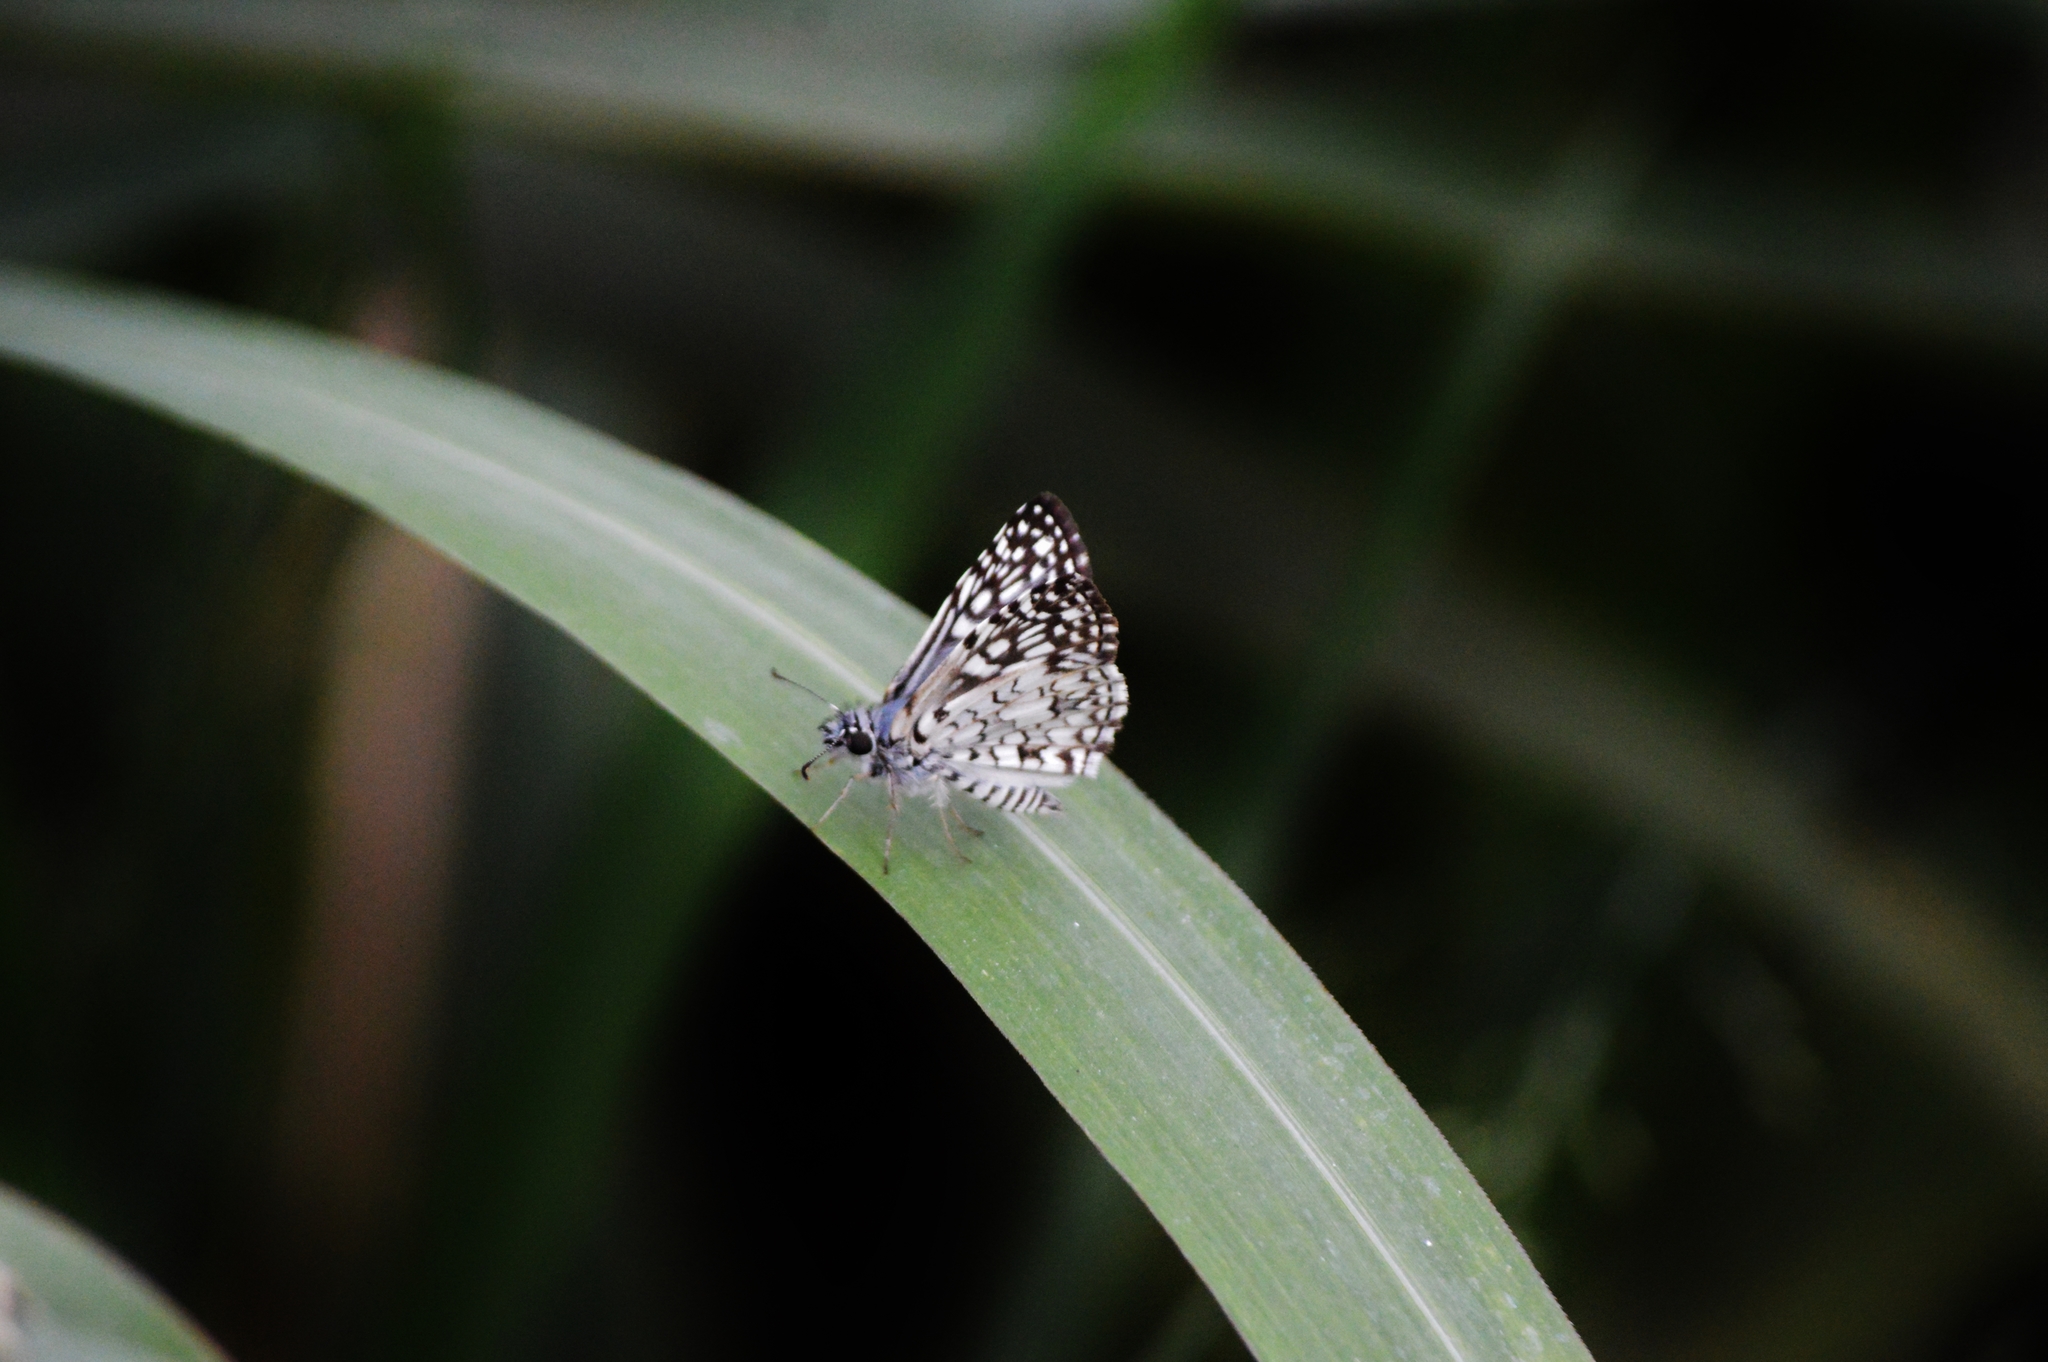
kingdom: Animalia
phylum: Arthropoda
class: Insecta
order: Lepidoptera
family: Hesperiidae
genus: Pyrgus
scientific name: Pyrgus oileus
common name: Tropical checkered-skipper
